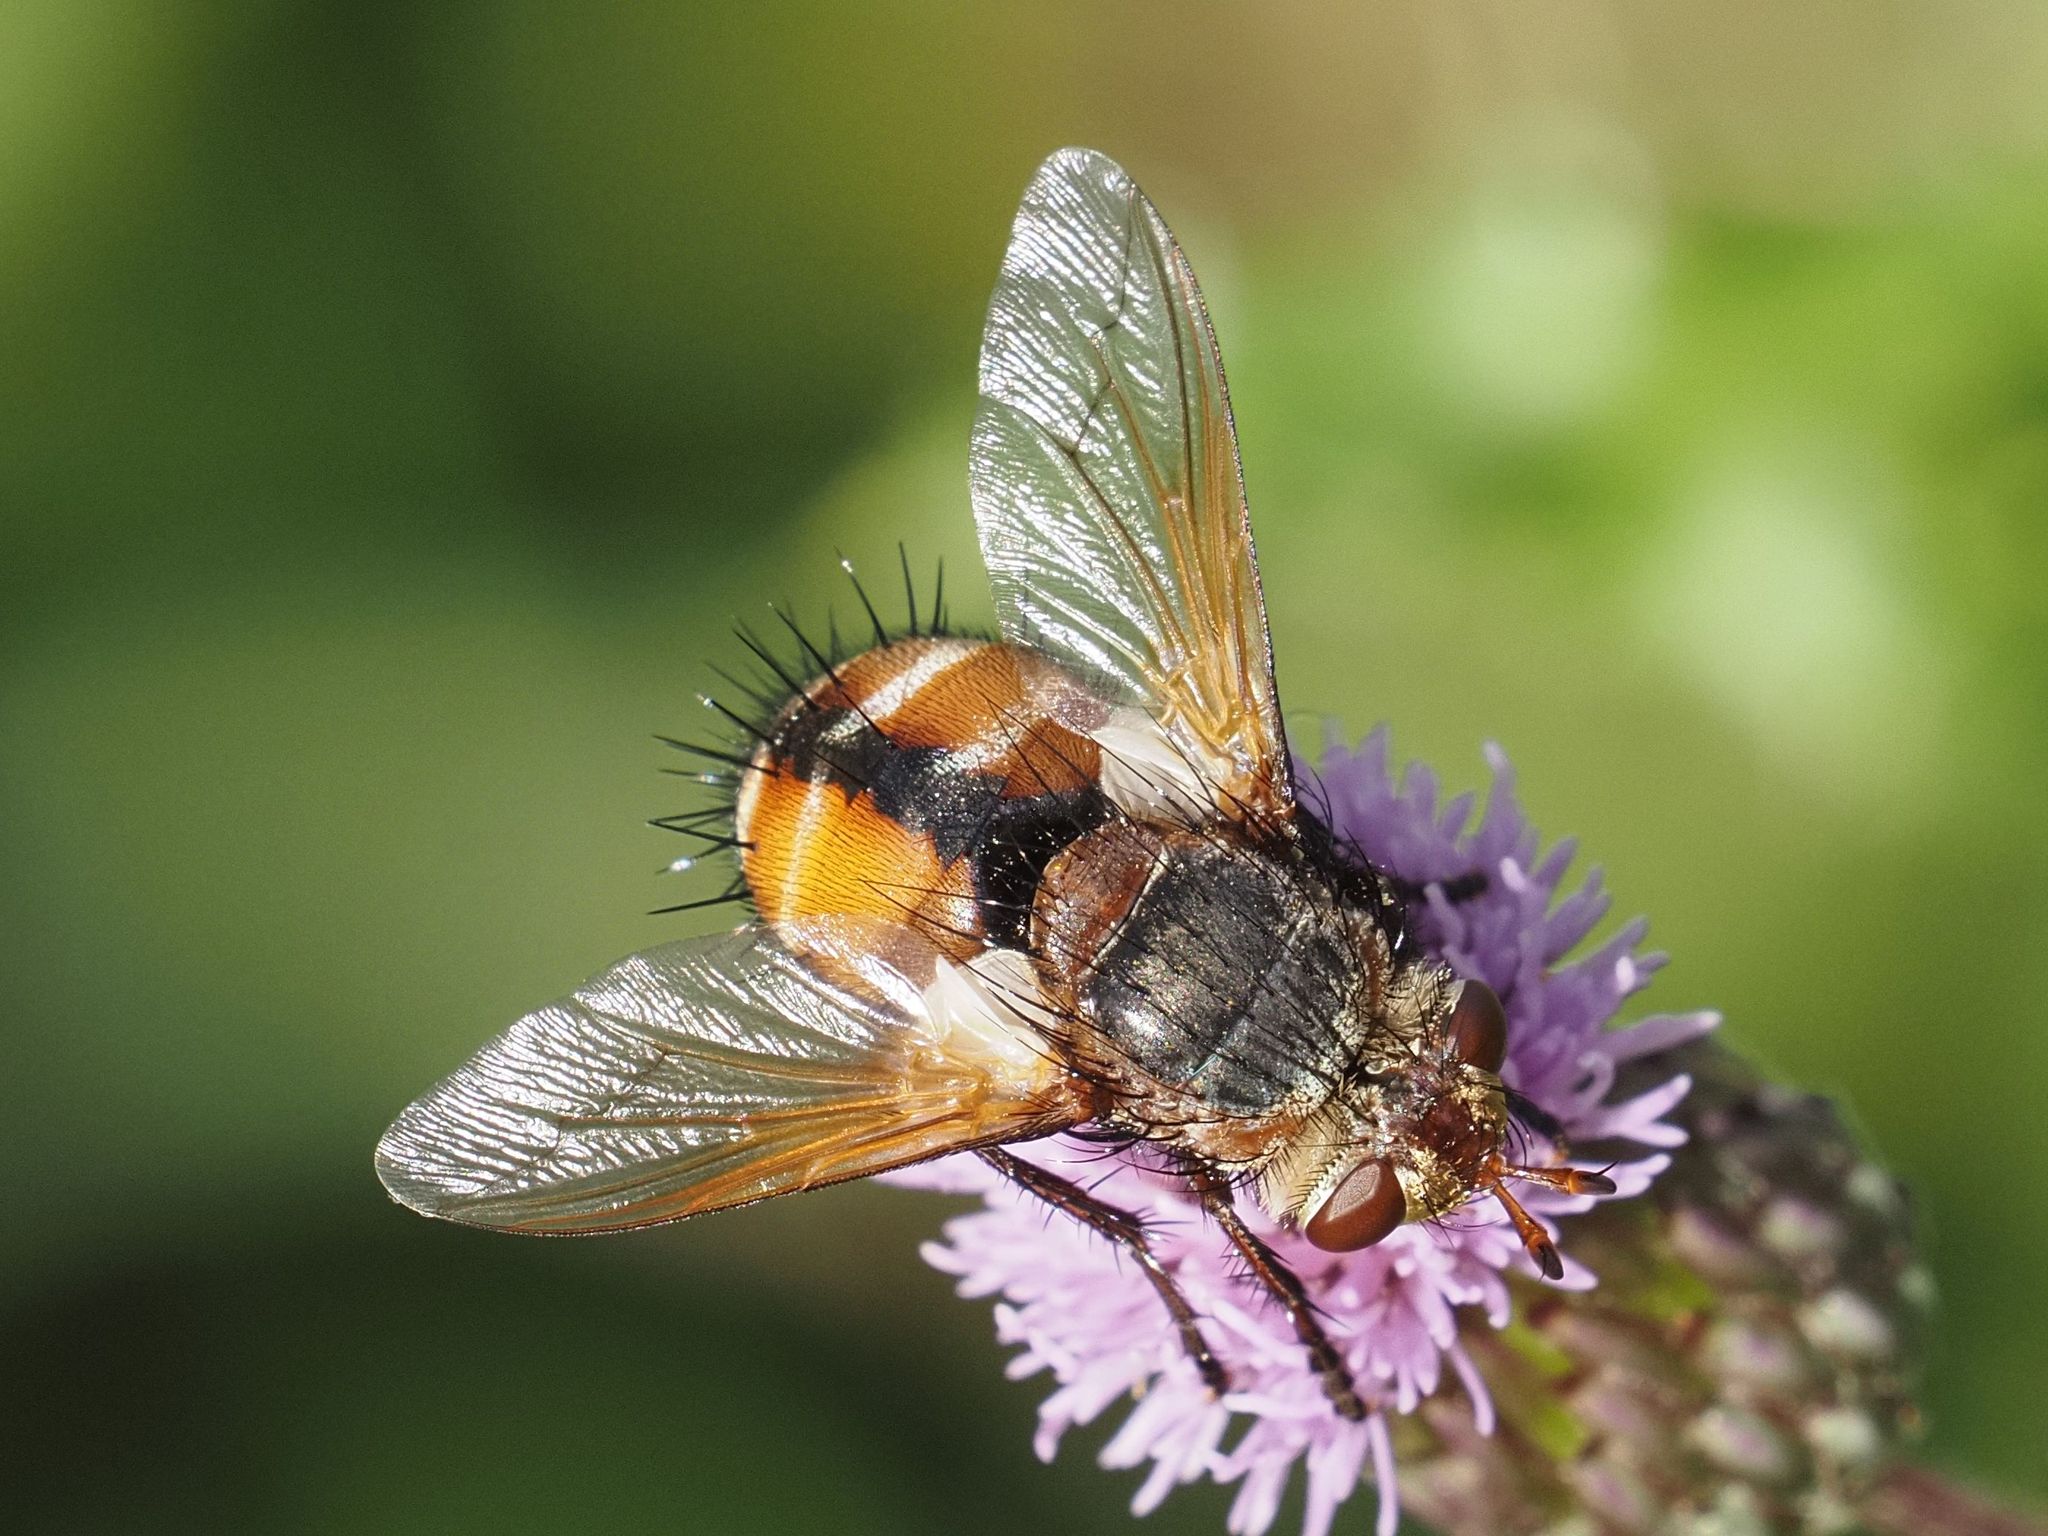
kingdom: Animalia
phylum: Arthropoda
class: Insecta
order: Diptera
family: Tachinidae
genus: Tachina
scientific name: Tachina fera
